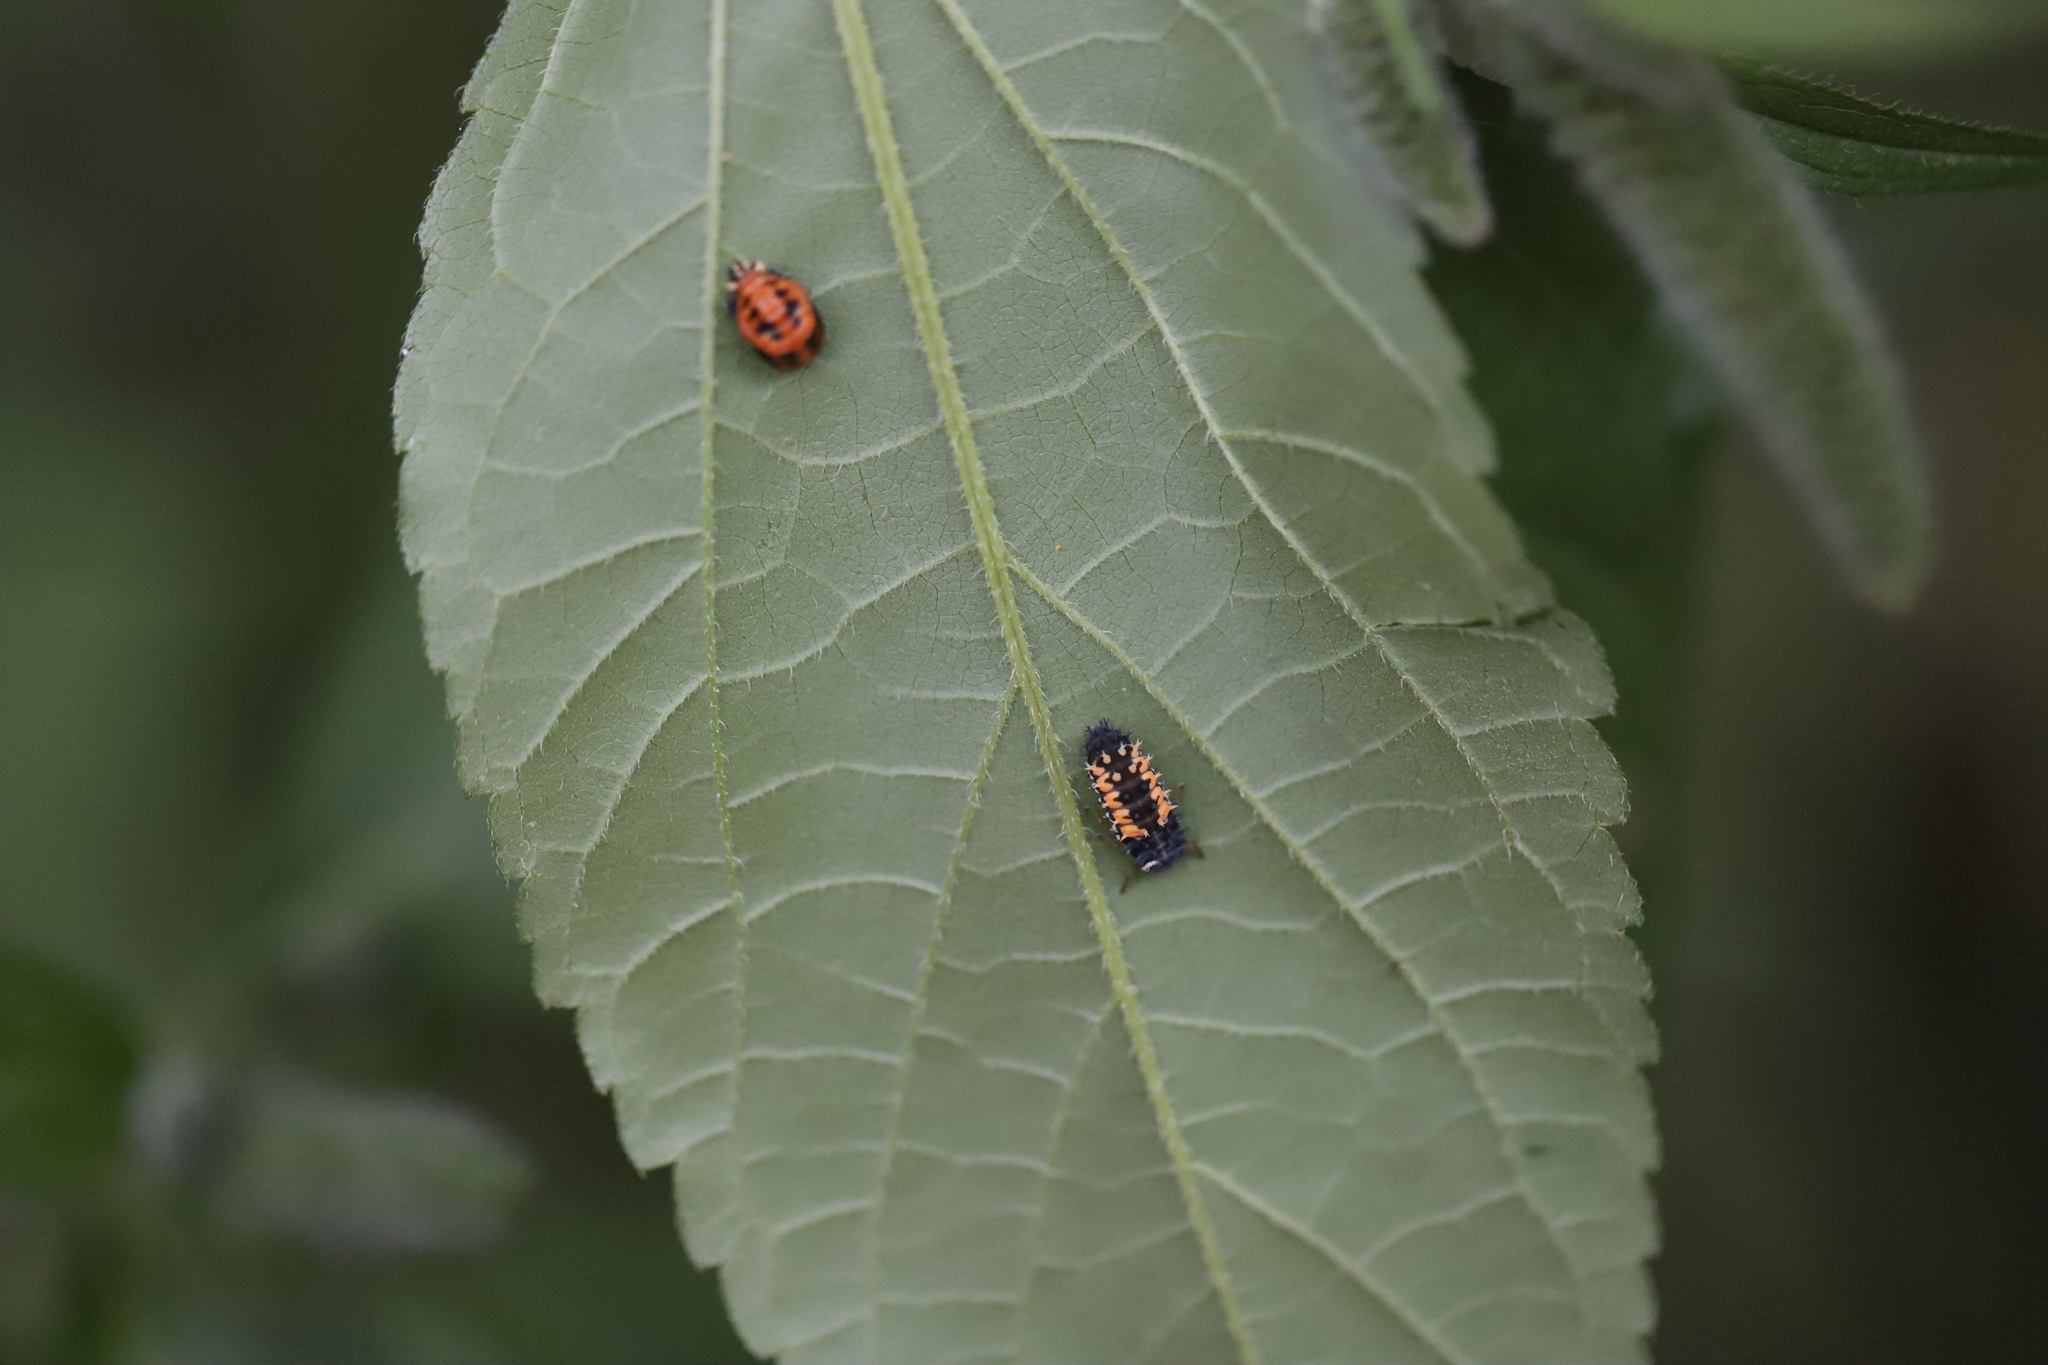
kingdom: Animalia
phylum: Arthropoda
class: Insecta
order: Coleoptera
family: Coccinellidae
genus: Harmonia
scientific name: Harmonia axyridis
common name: Harlequin ladybird
